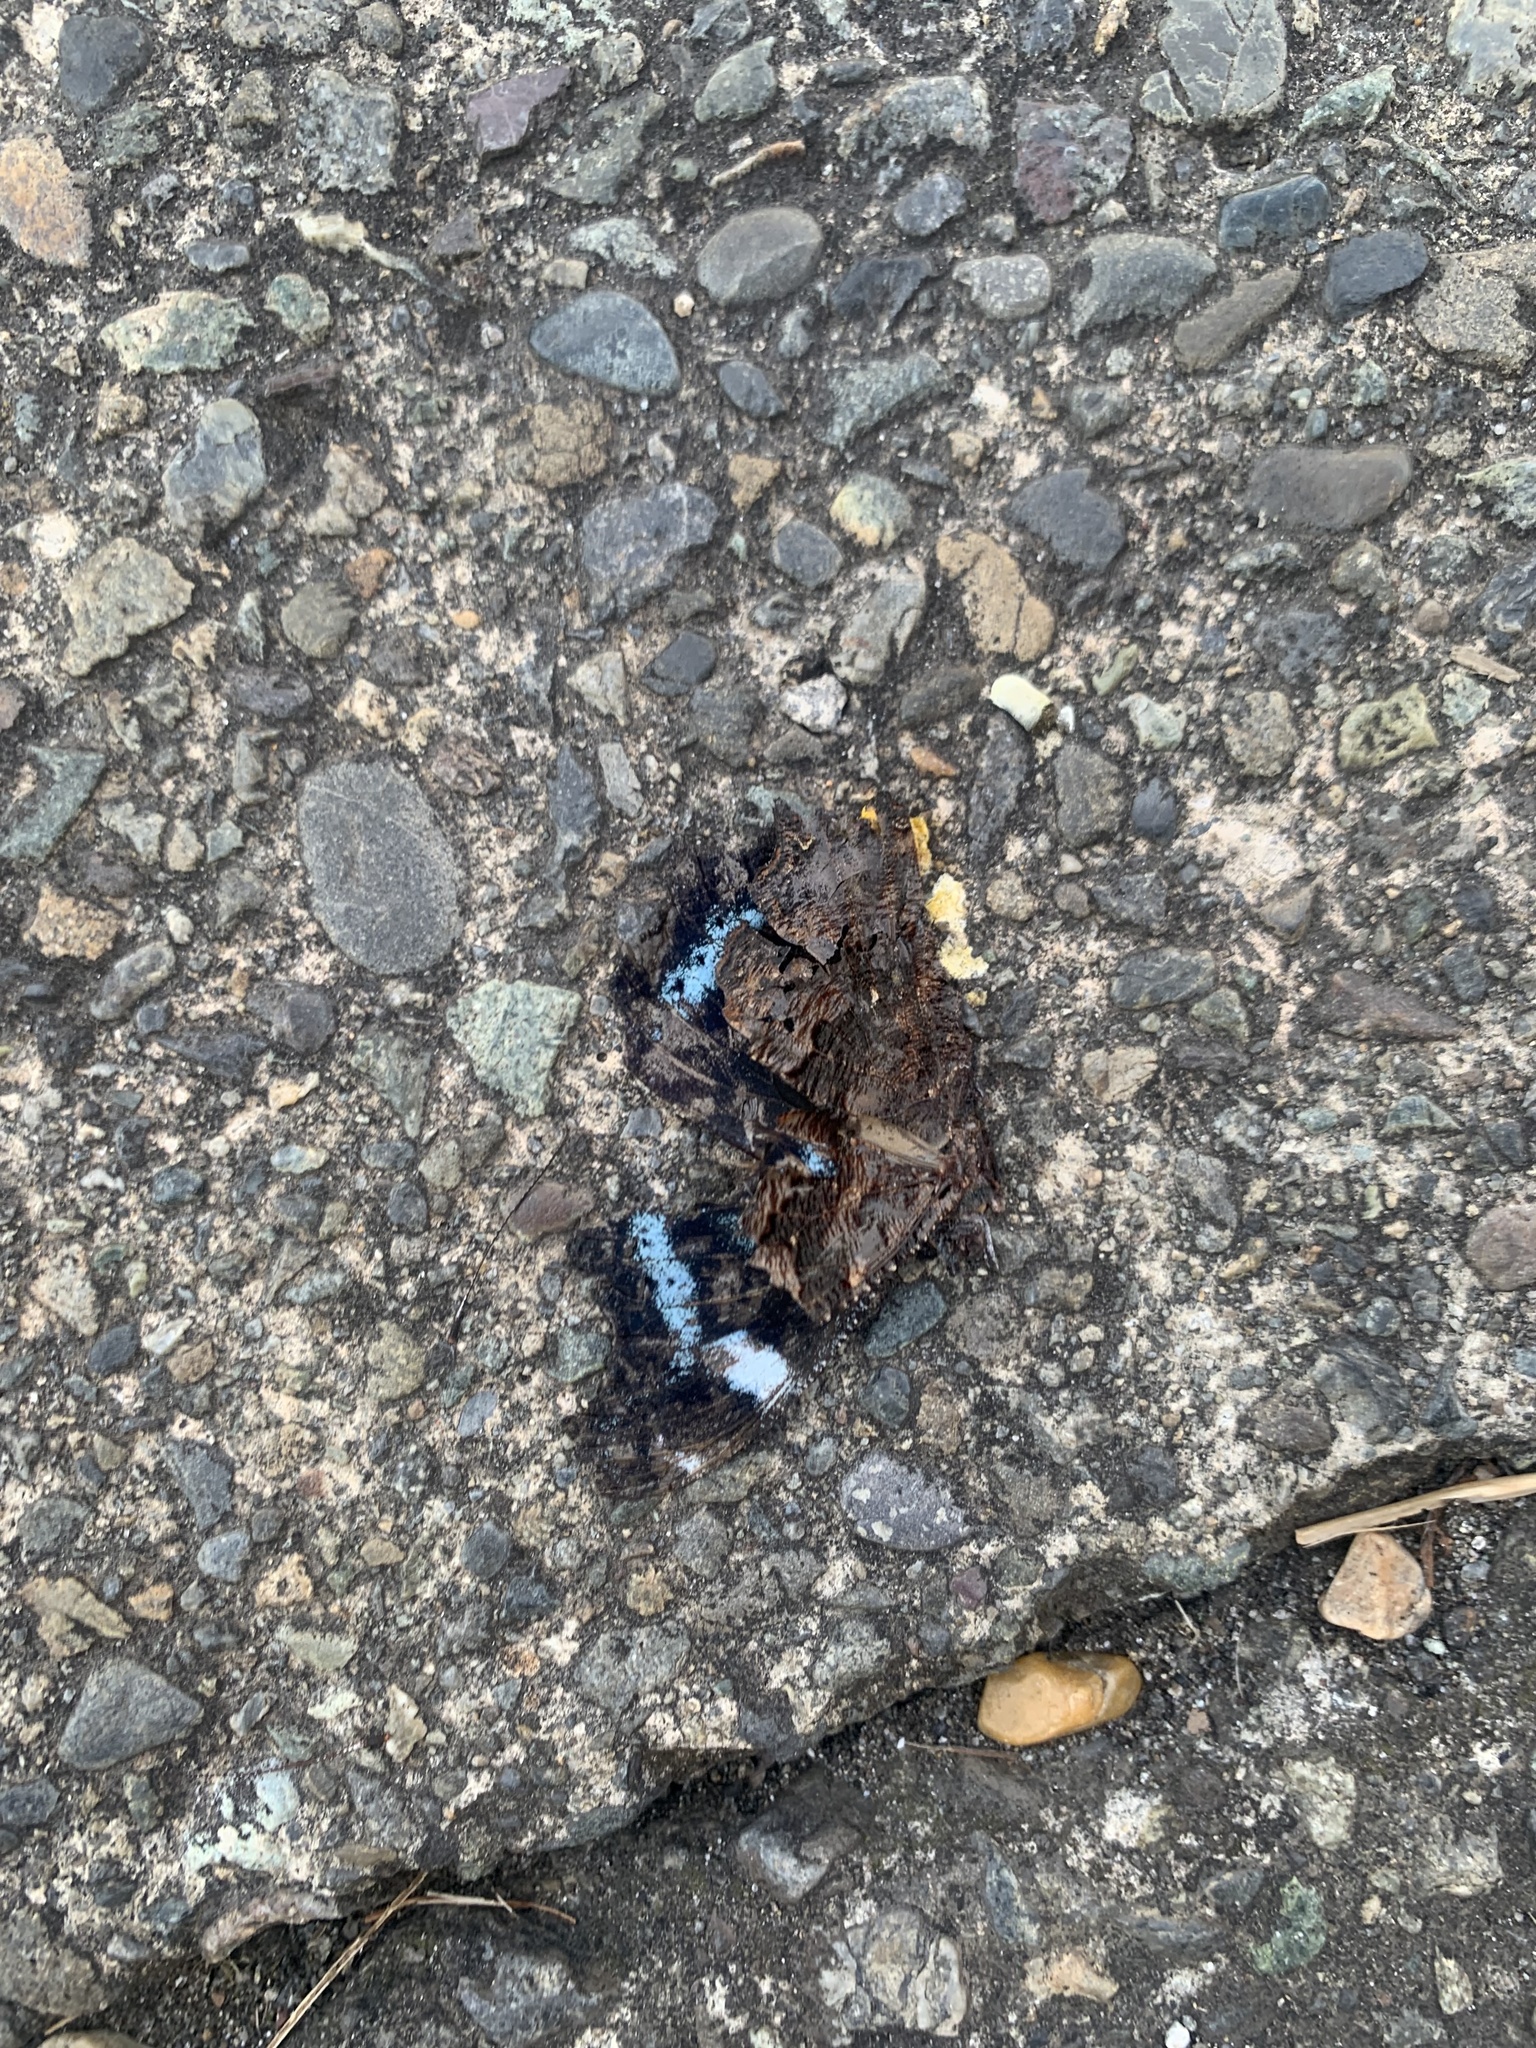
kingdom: Animalia
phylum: Arthropoda
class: Insecta
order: Lepidoptera
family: Nymphalidae
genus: Vanessa
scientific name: Vanessa Kaniska canace
